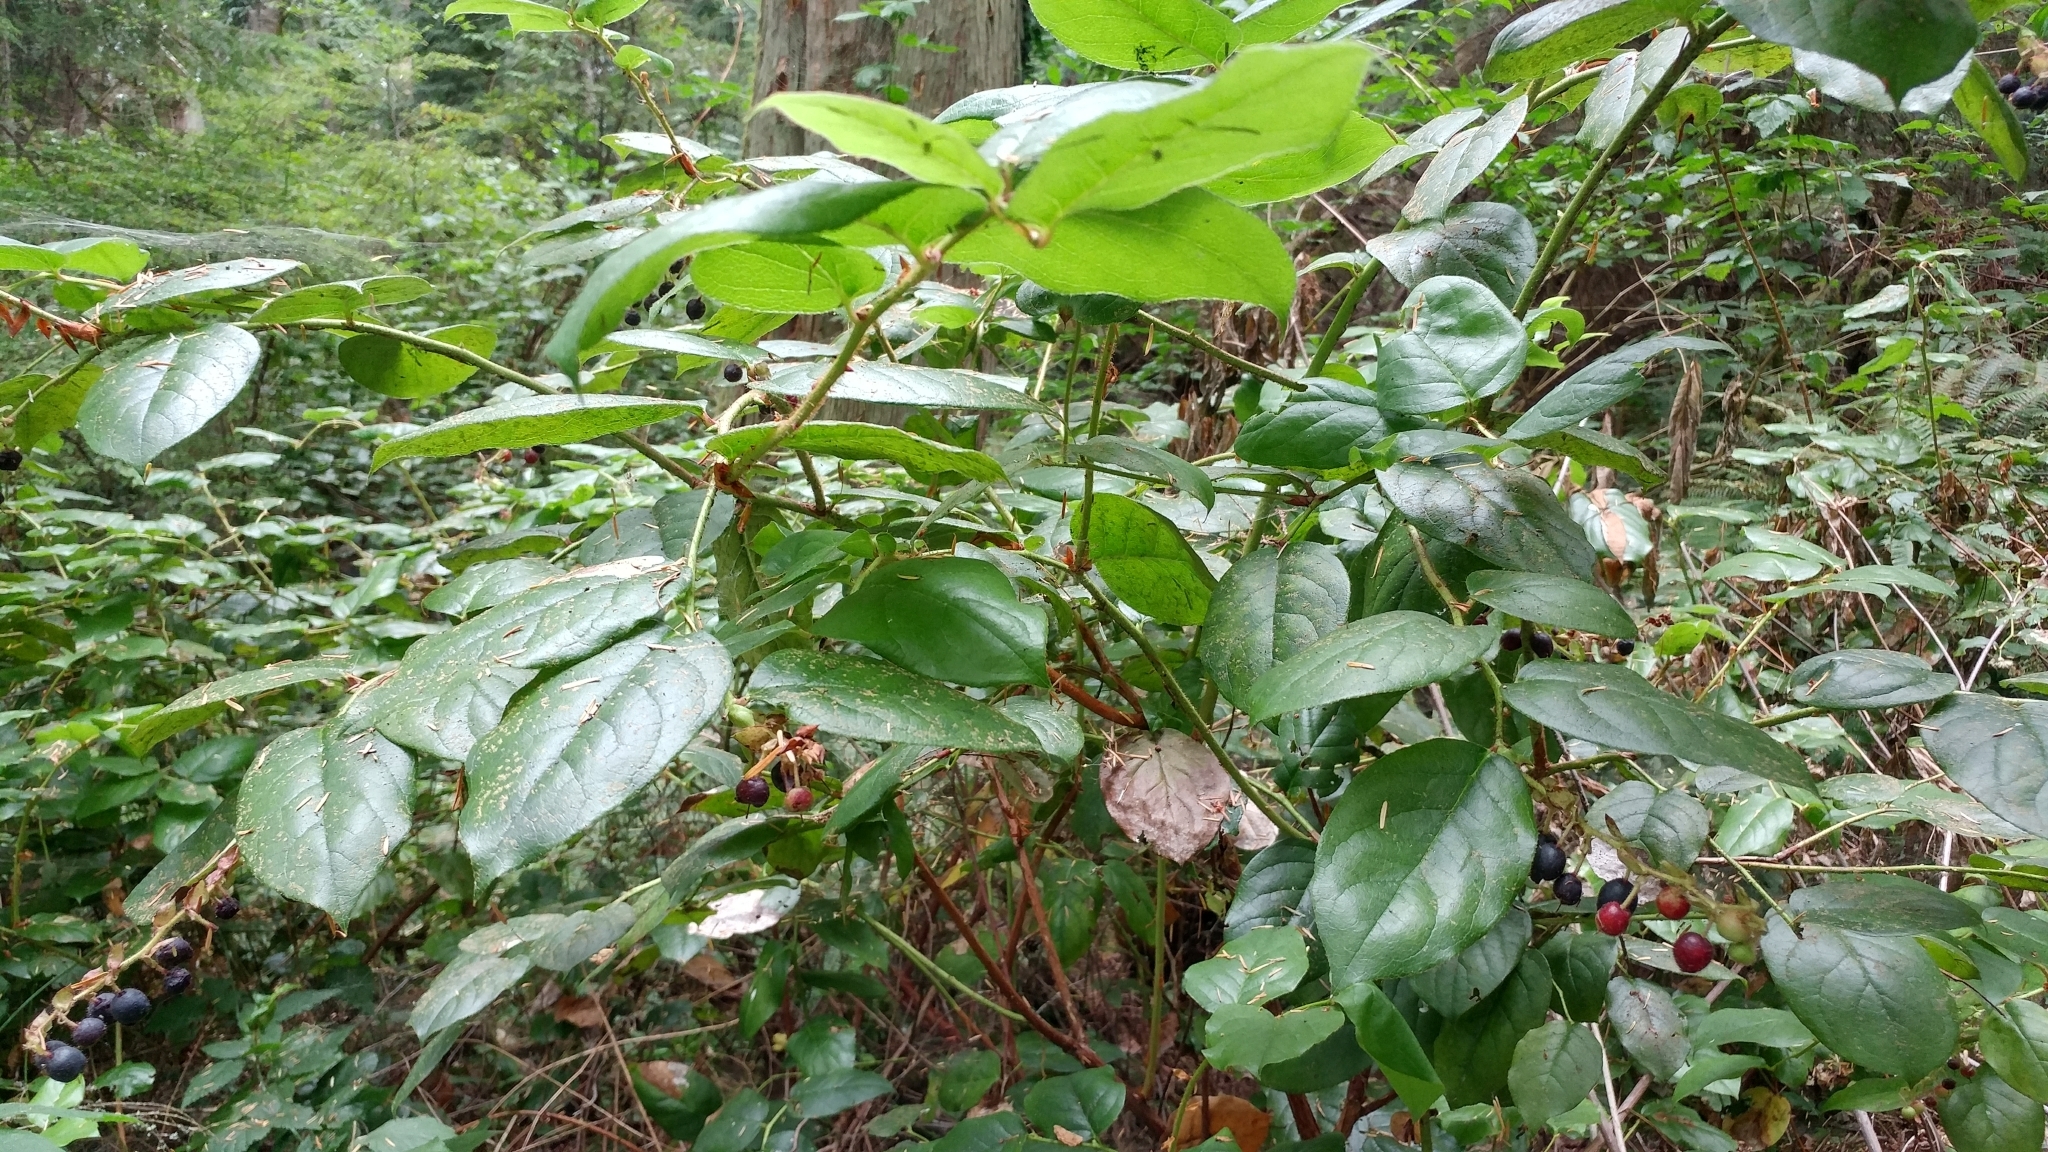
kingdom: Plantae
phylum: Tracheophyta
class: Magnoliopsida
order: Ericales
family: Ericaceae
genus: Gaultheria
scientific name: Gaultheria shallon
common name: Shallon
